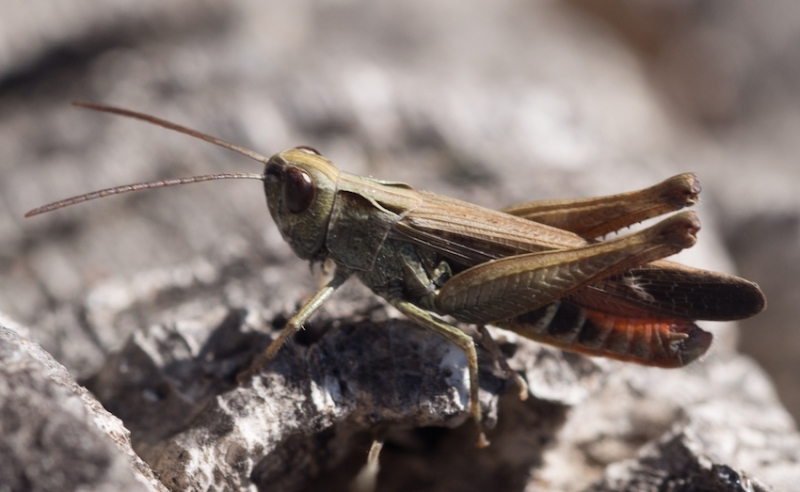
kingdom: Animalia
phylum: Arthropoda
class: Insecta
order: Orthoptera
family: Acrididae
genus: Omocestus
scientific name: Omocestus rufipes
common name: Woodland grasshopper
